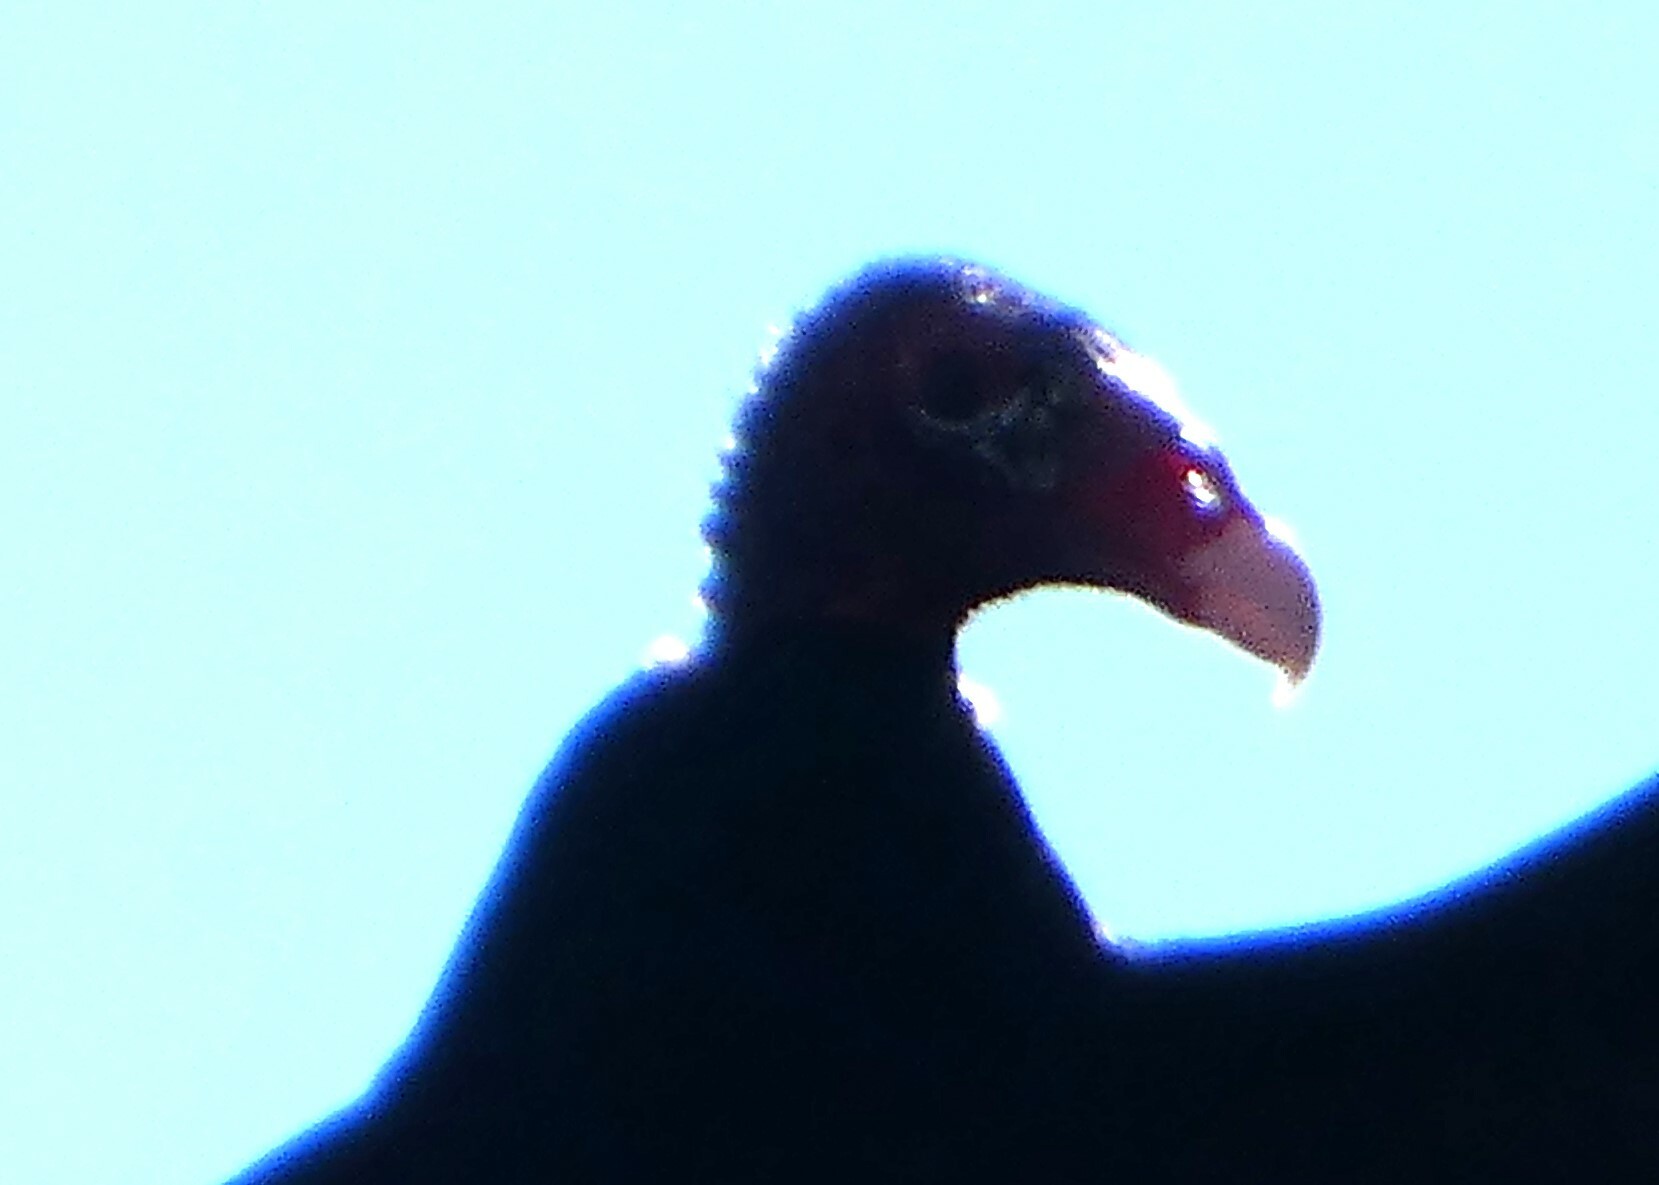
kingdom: Animalia
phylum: Chordata
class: Aves
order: Accipitriformes
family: Cathartidae
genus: Cathartes
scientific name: Cathartes aura
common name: Turkey vulture
